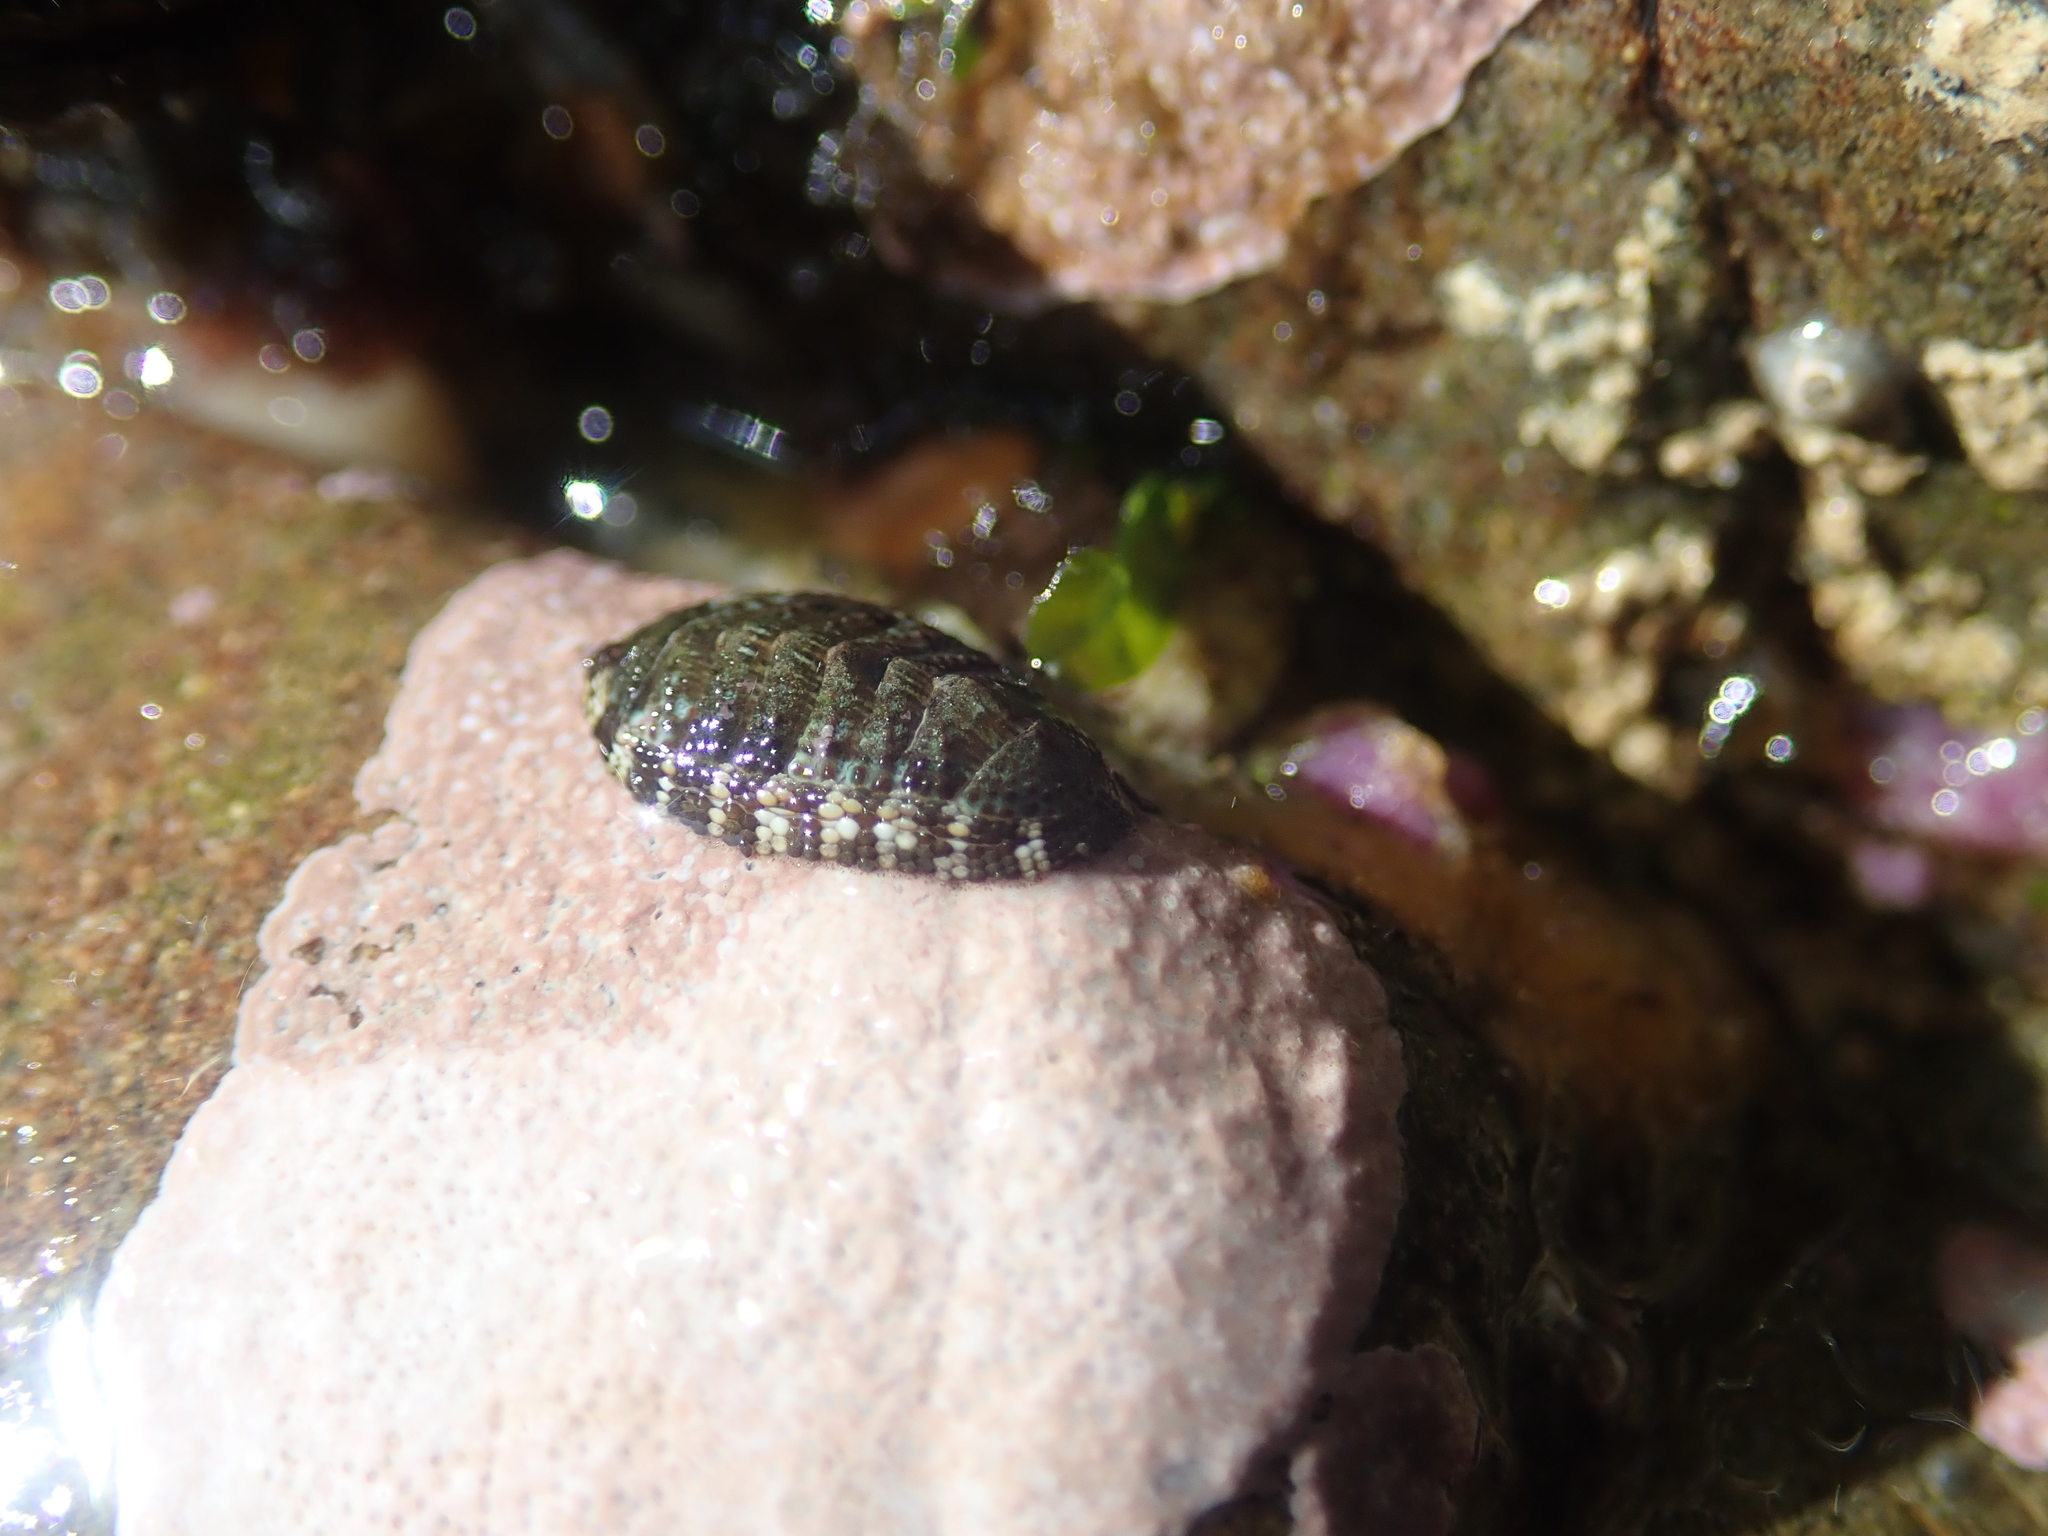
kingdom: Animalia
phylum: Mollusca
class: Polyplacophora
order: Chitonida
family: Chitonidae
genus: Sypharochiton
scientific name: Sypharochiton sinclairi
